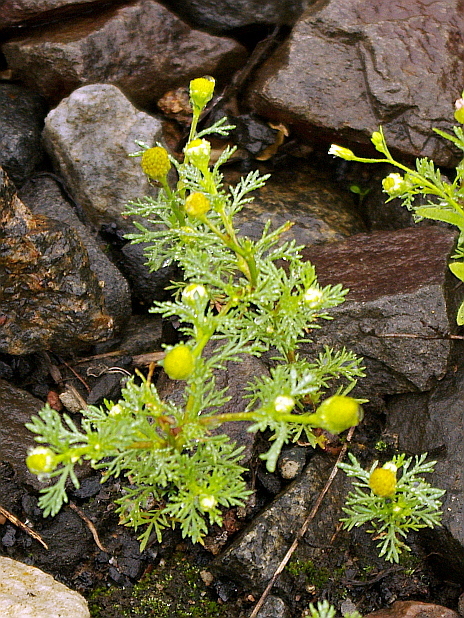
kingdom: Plantae
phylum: Tracheophyta
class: Magnoliopsida
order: Asterales
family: Asteraceae
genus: Matricaria
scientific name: Matricaria discoidea
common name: Disc mayweed
